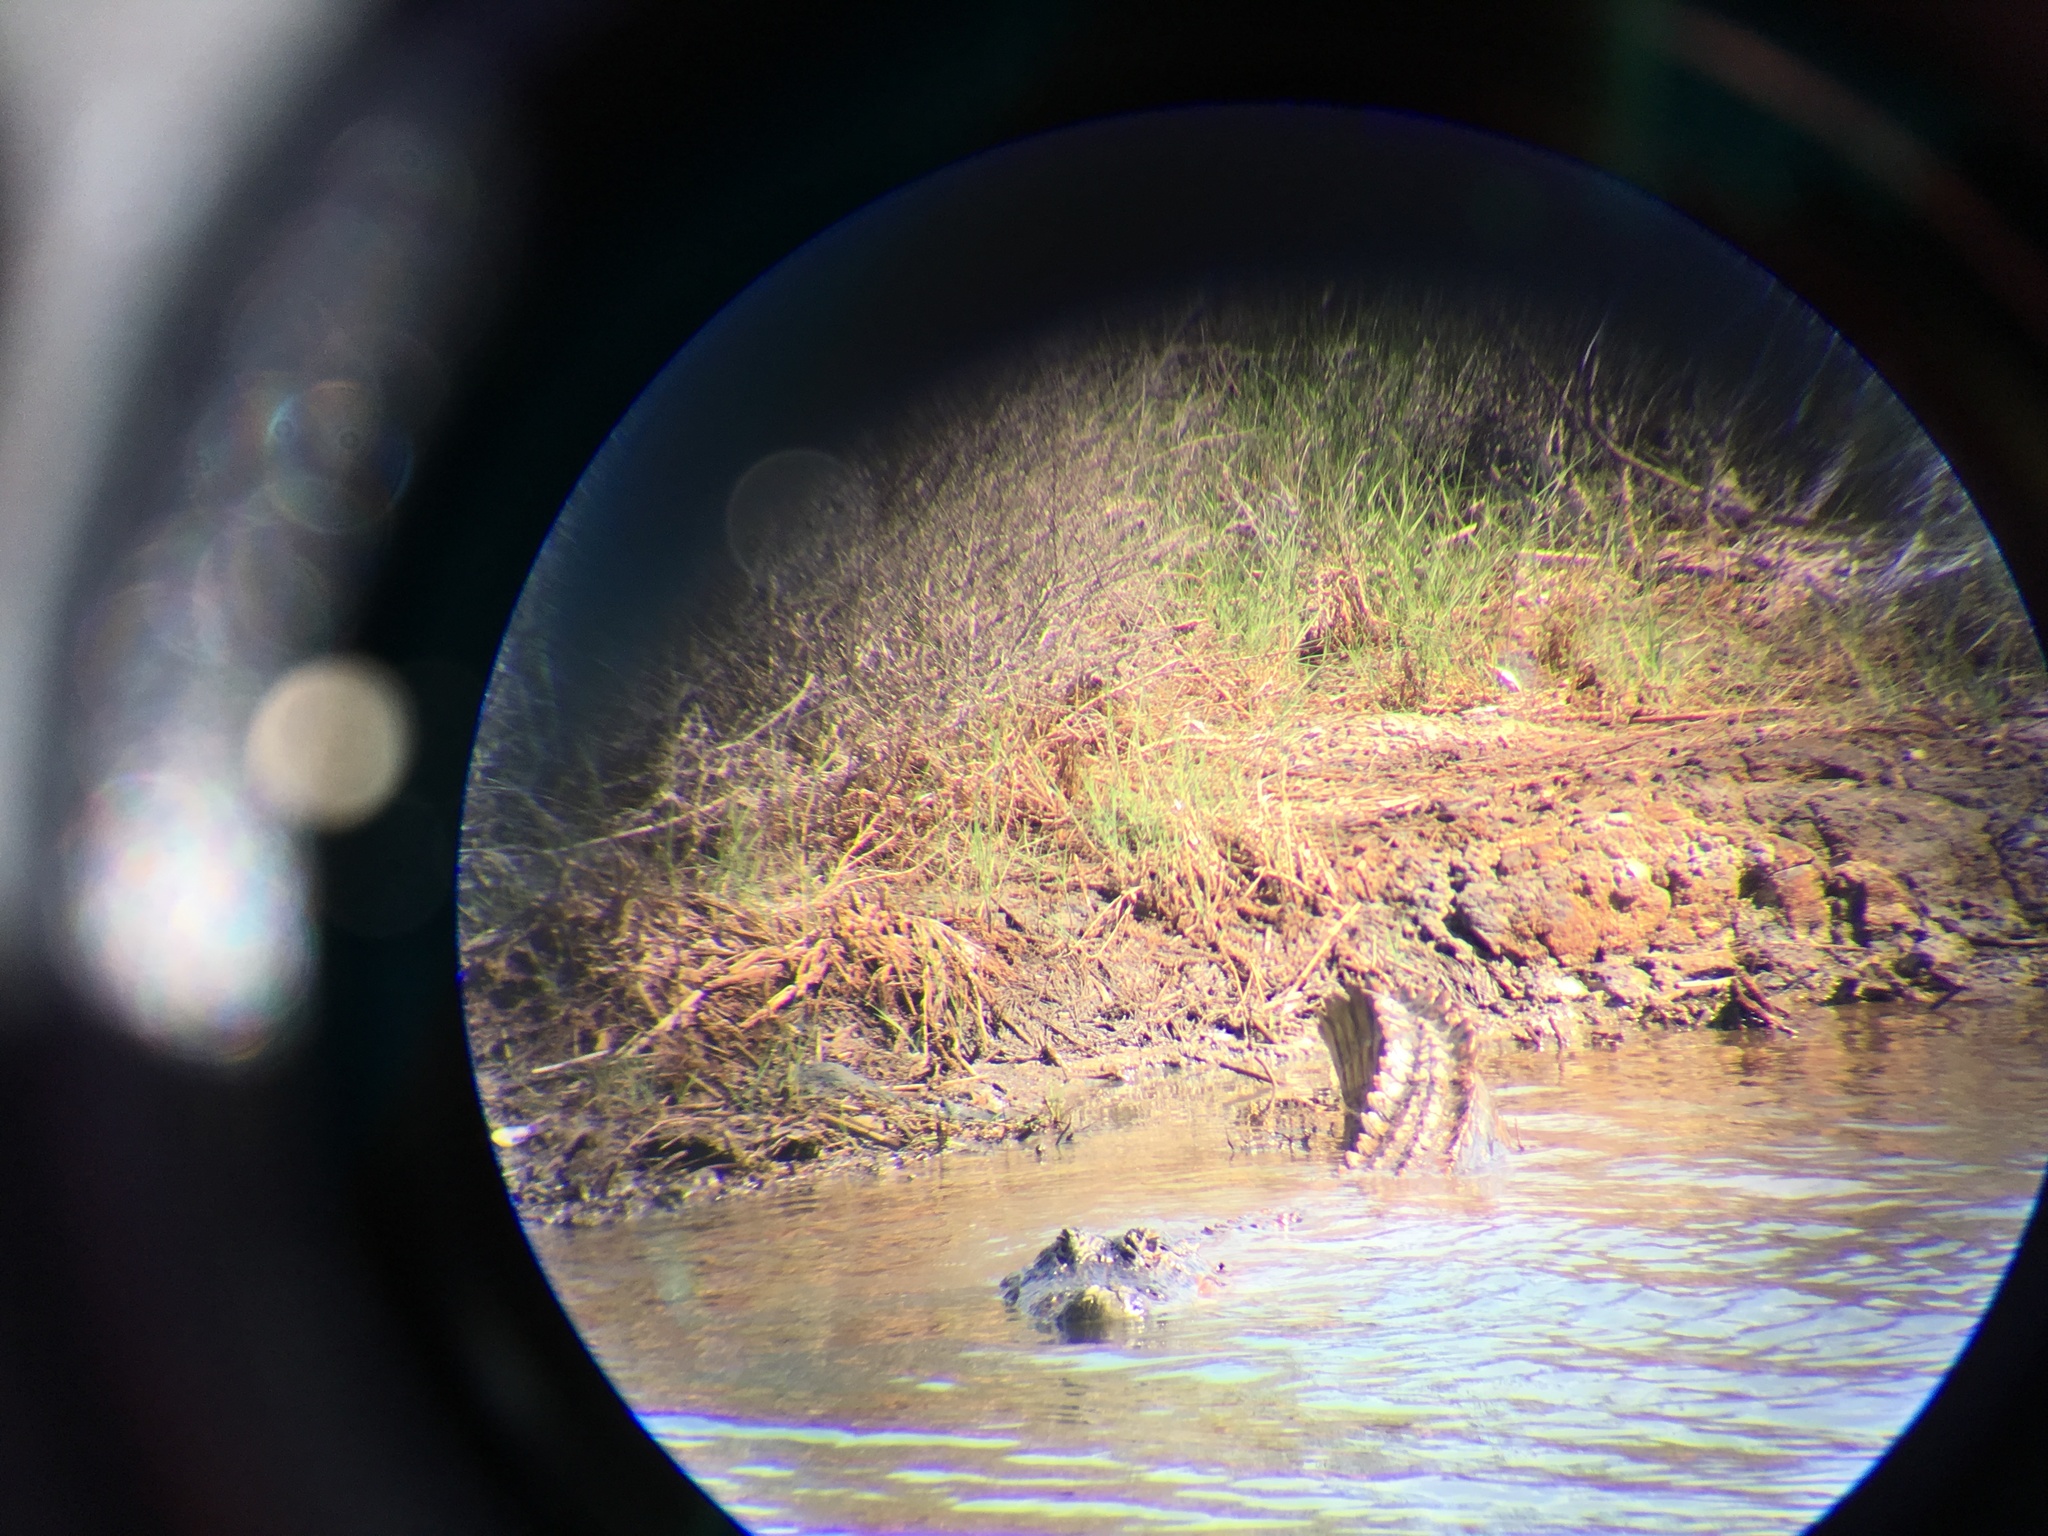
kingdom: Animalia
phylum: Chordata
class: Crocodylia
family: Alligatoridae
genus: Alligator
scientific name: Alligator mississippiensis
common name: American alligator
